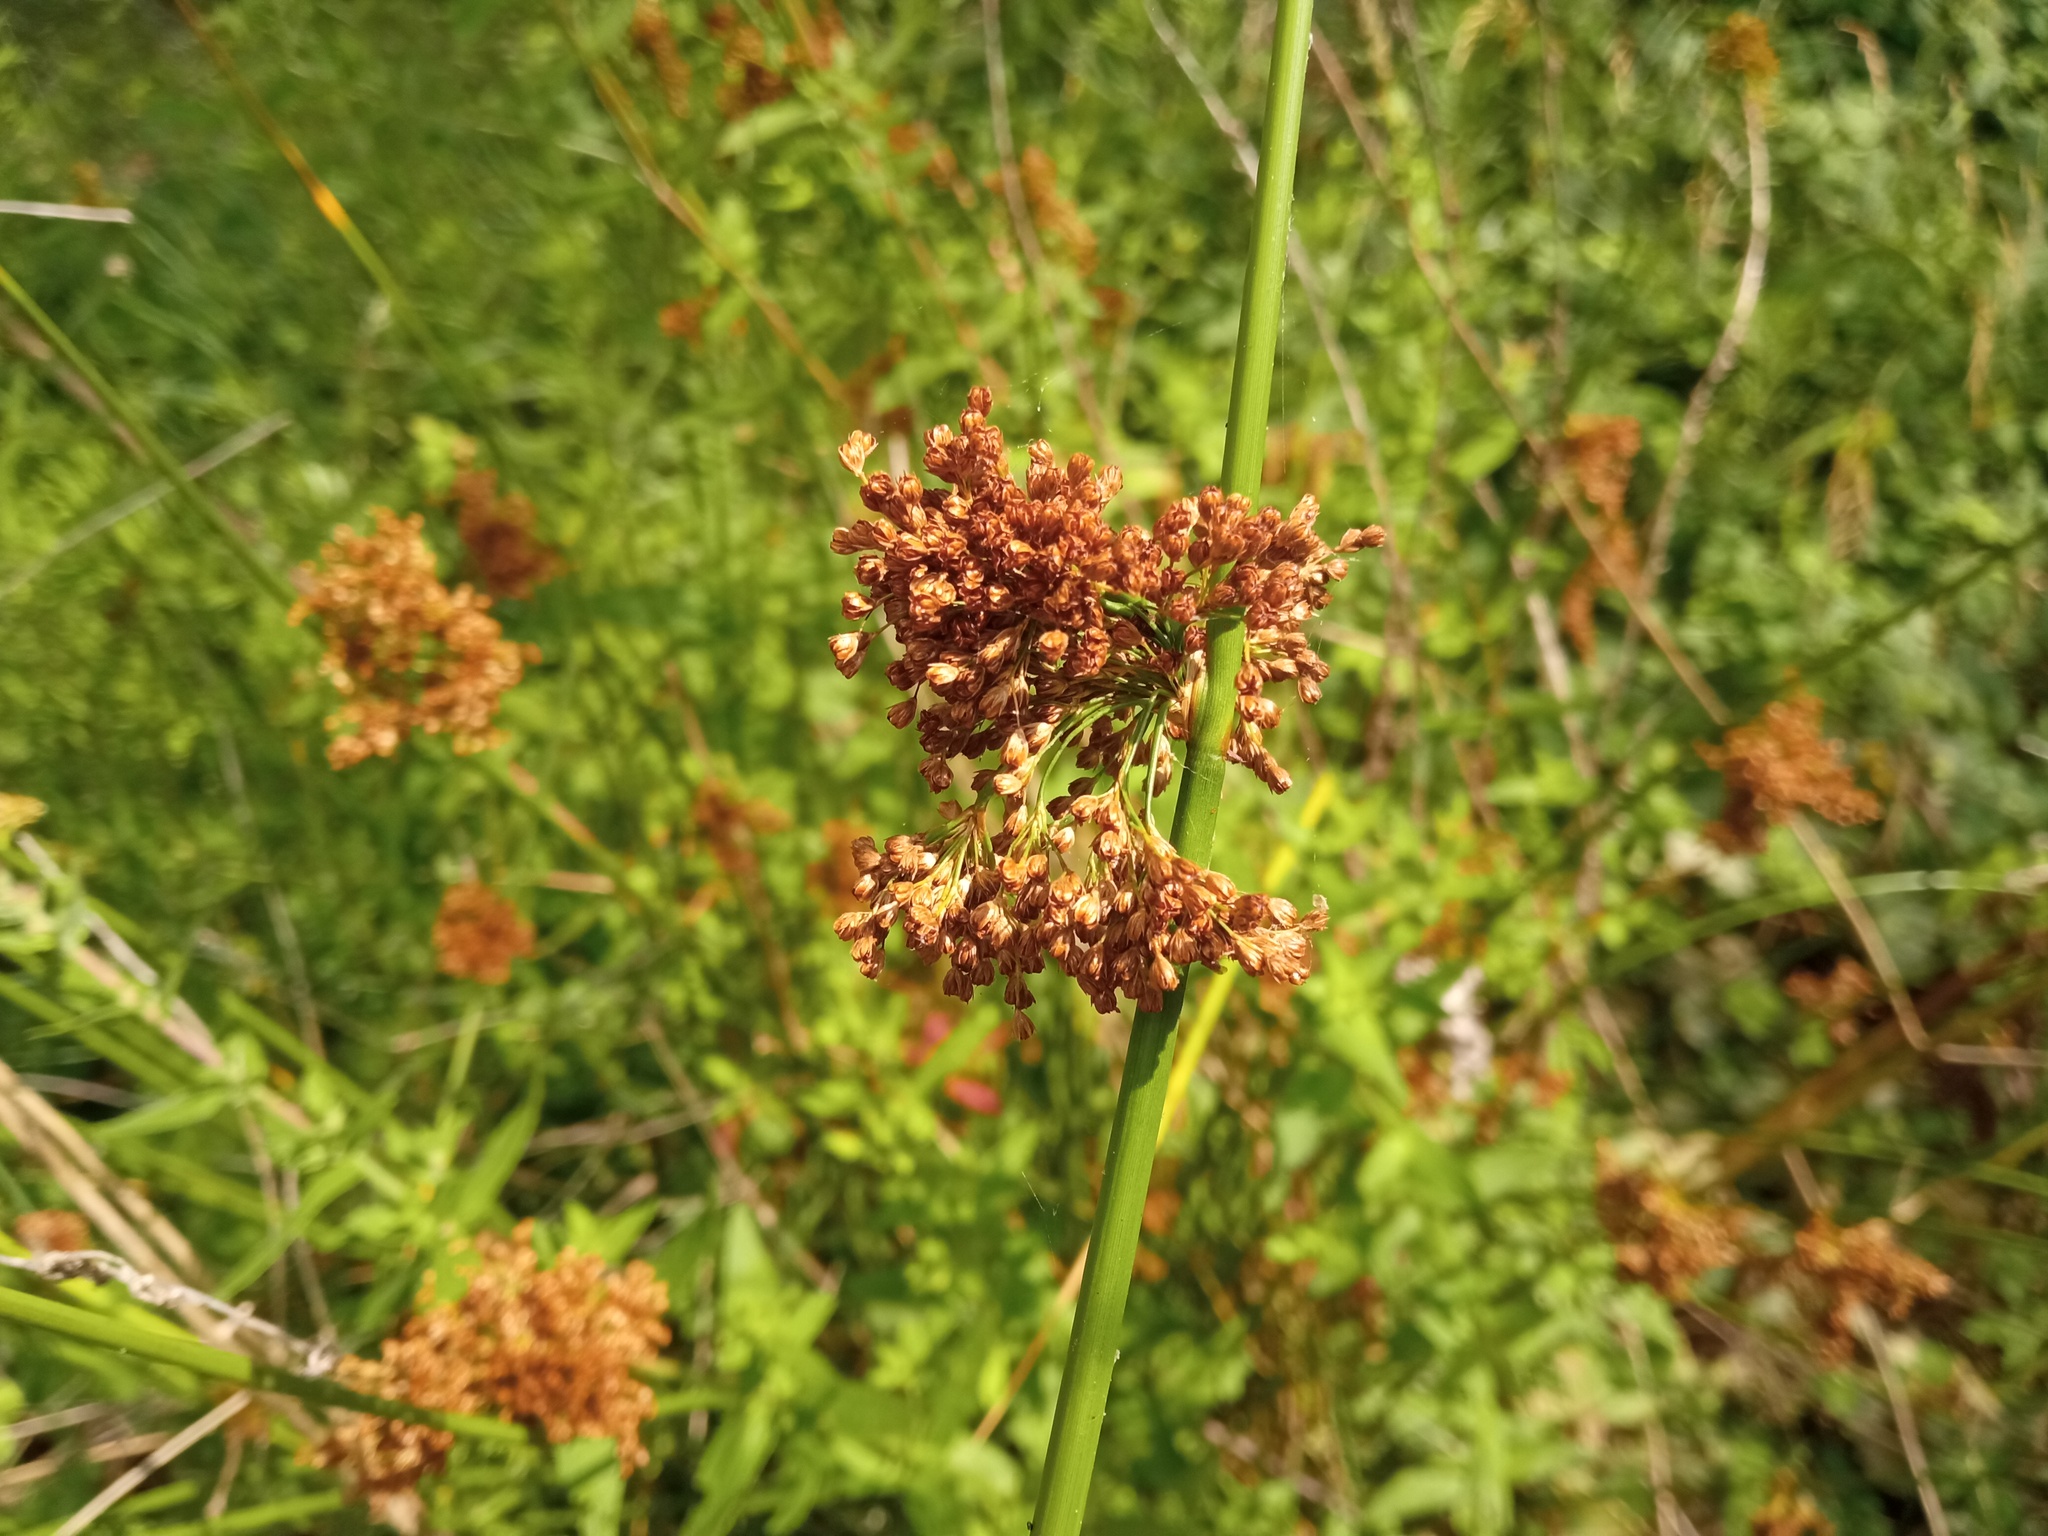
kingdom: Plantae
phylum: Tracheophyta
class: Liliopsida
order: Poales
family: Juncaceae
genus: Juncus
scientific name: Juncus effusus
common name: Soft rush
